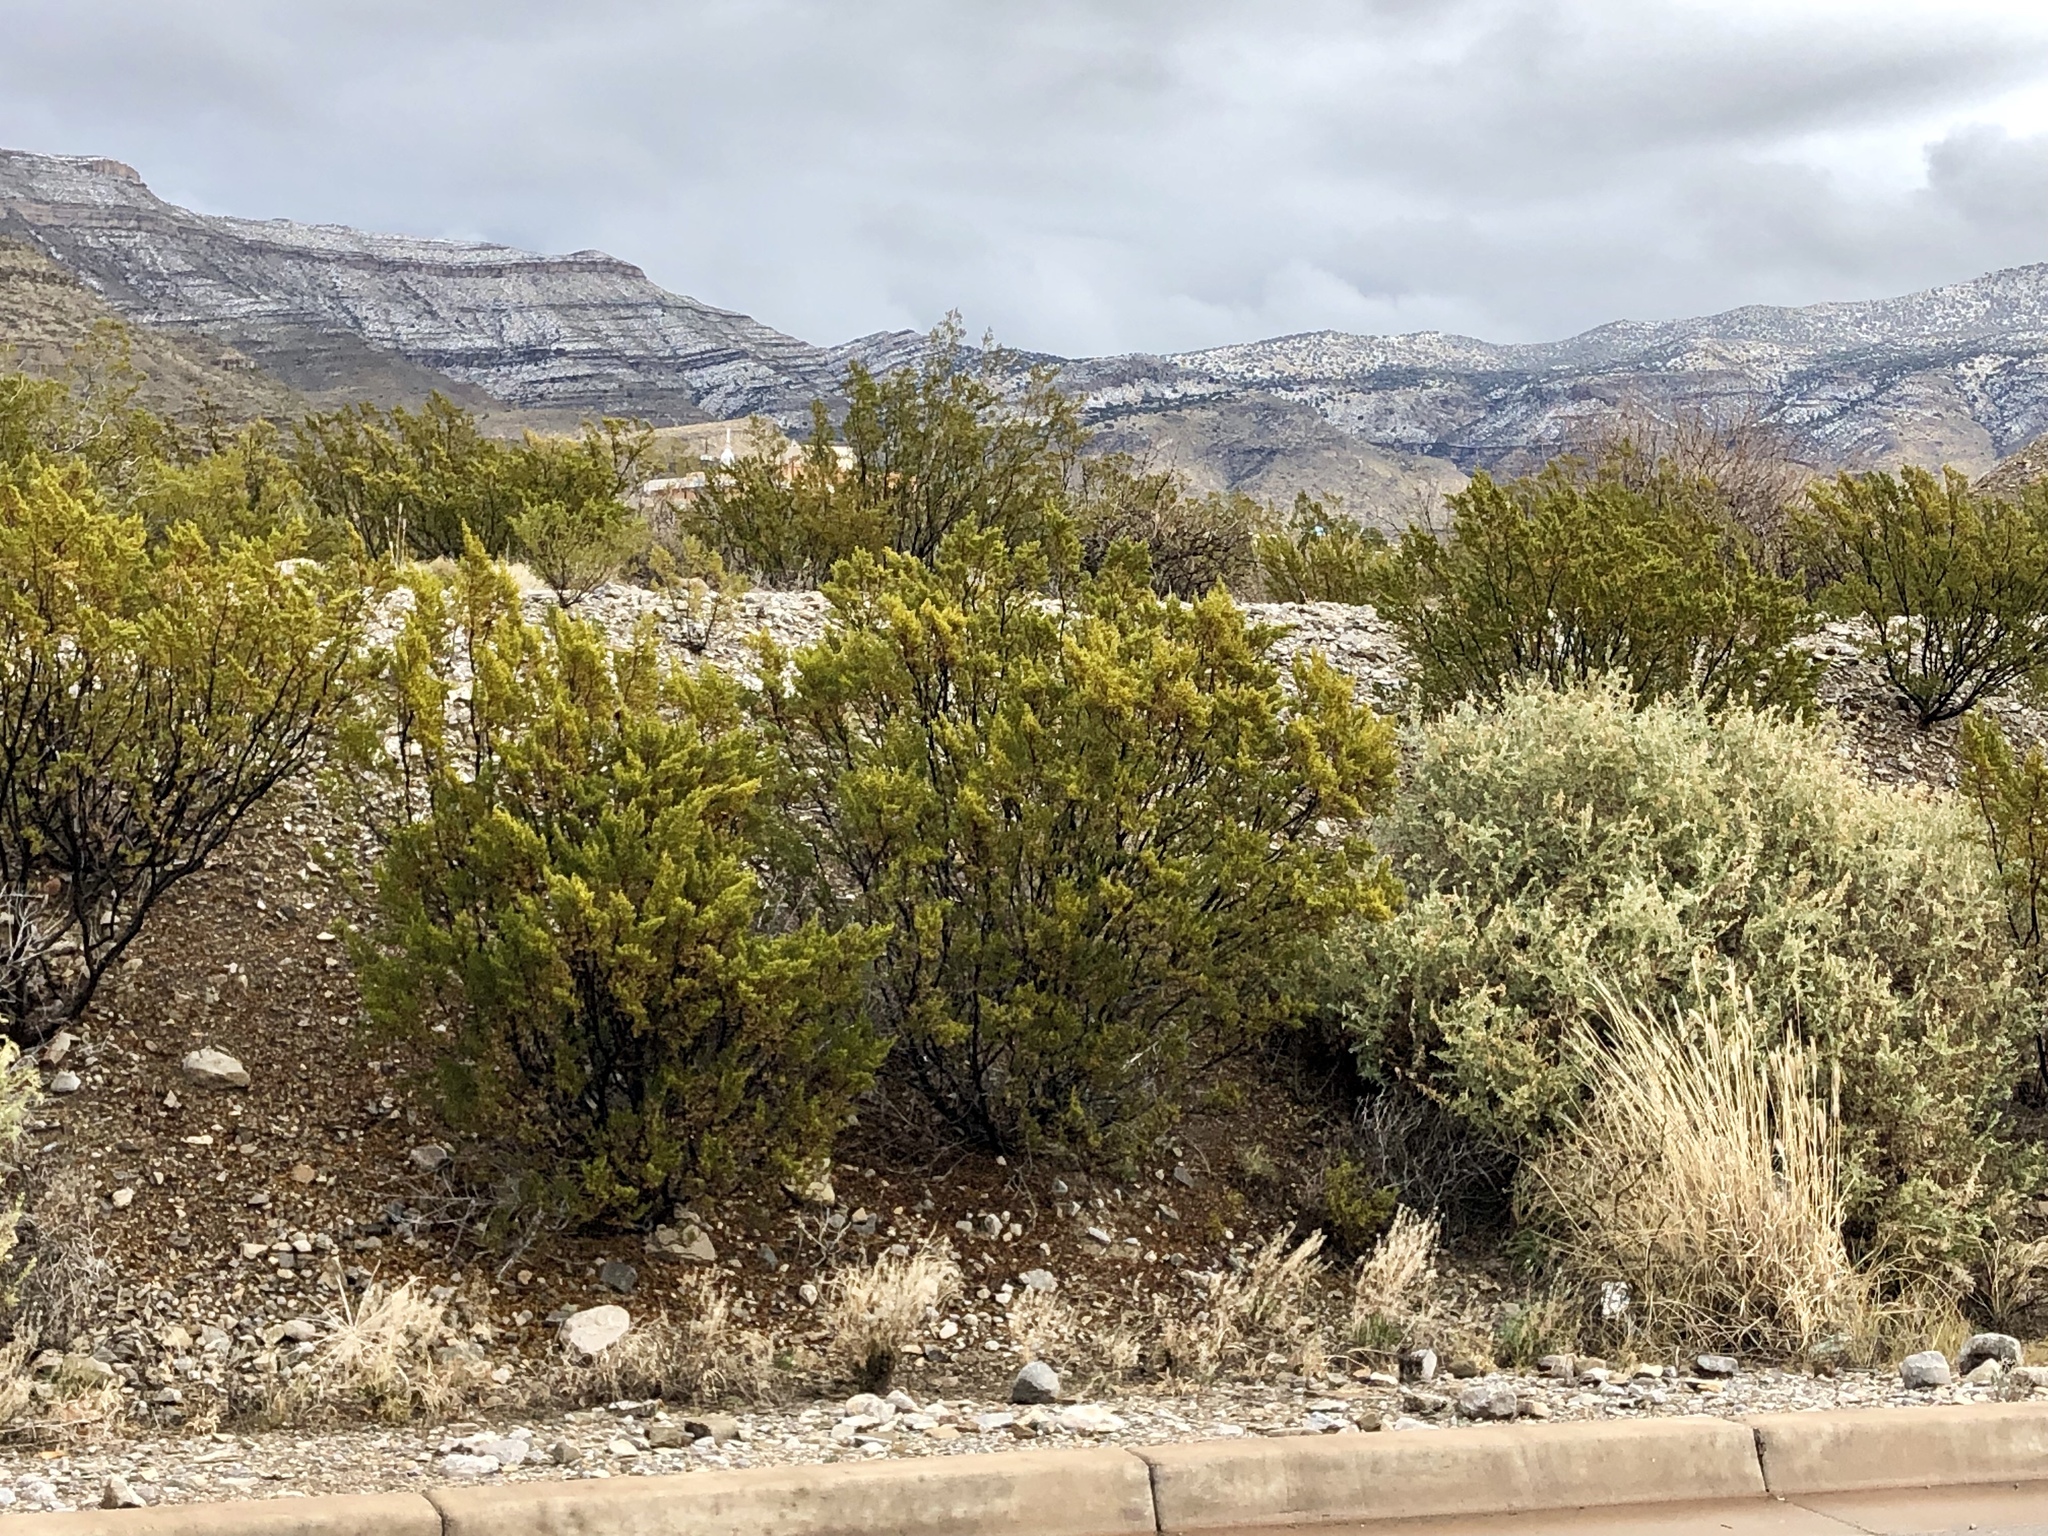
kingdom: Plantae
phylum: Tracheophyta
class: Magnoliopsida
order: Zygophyllales
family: Zygophyllaceae
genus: Larrea
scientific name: Larrea tridentata
